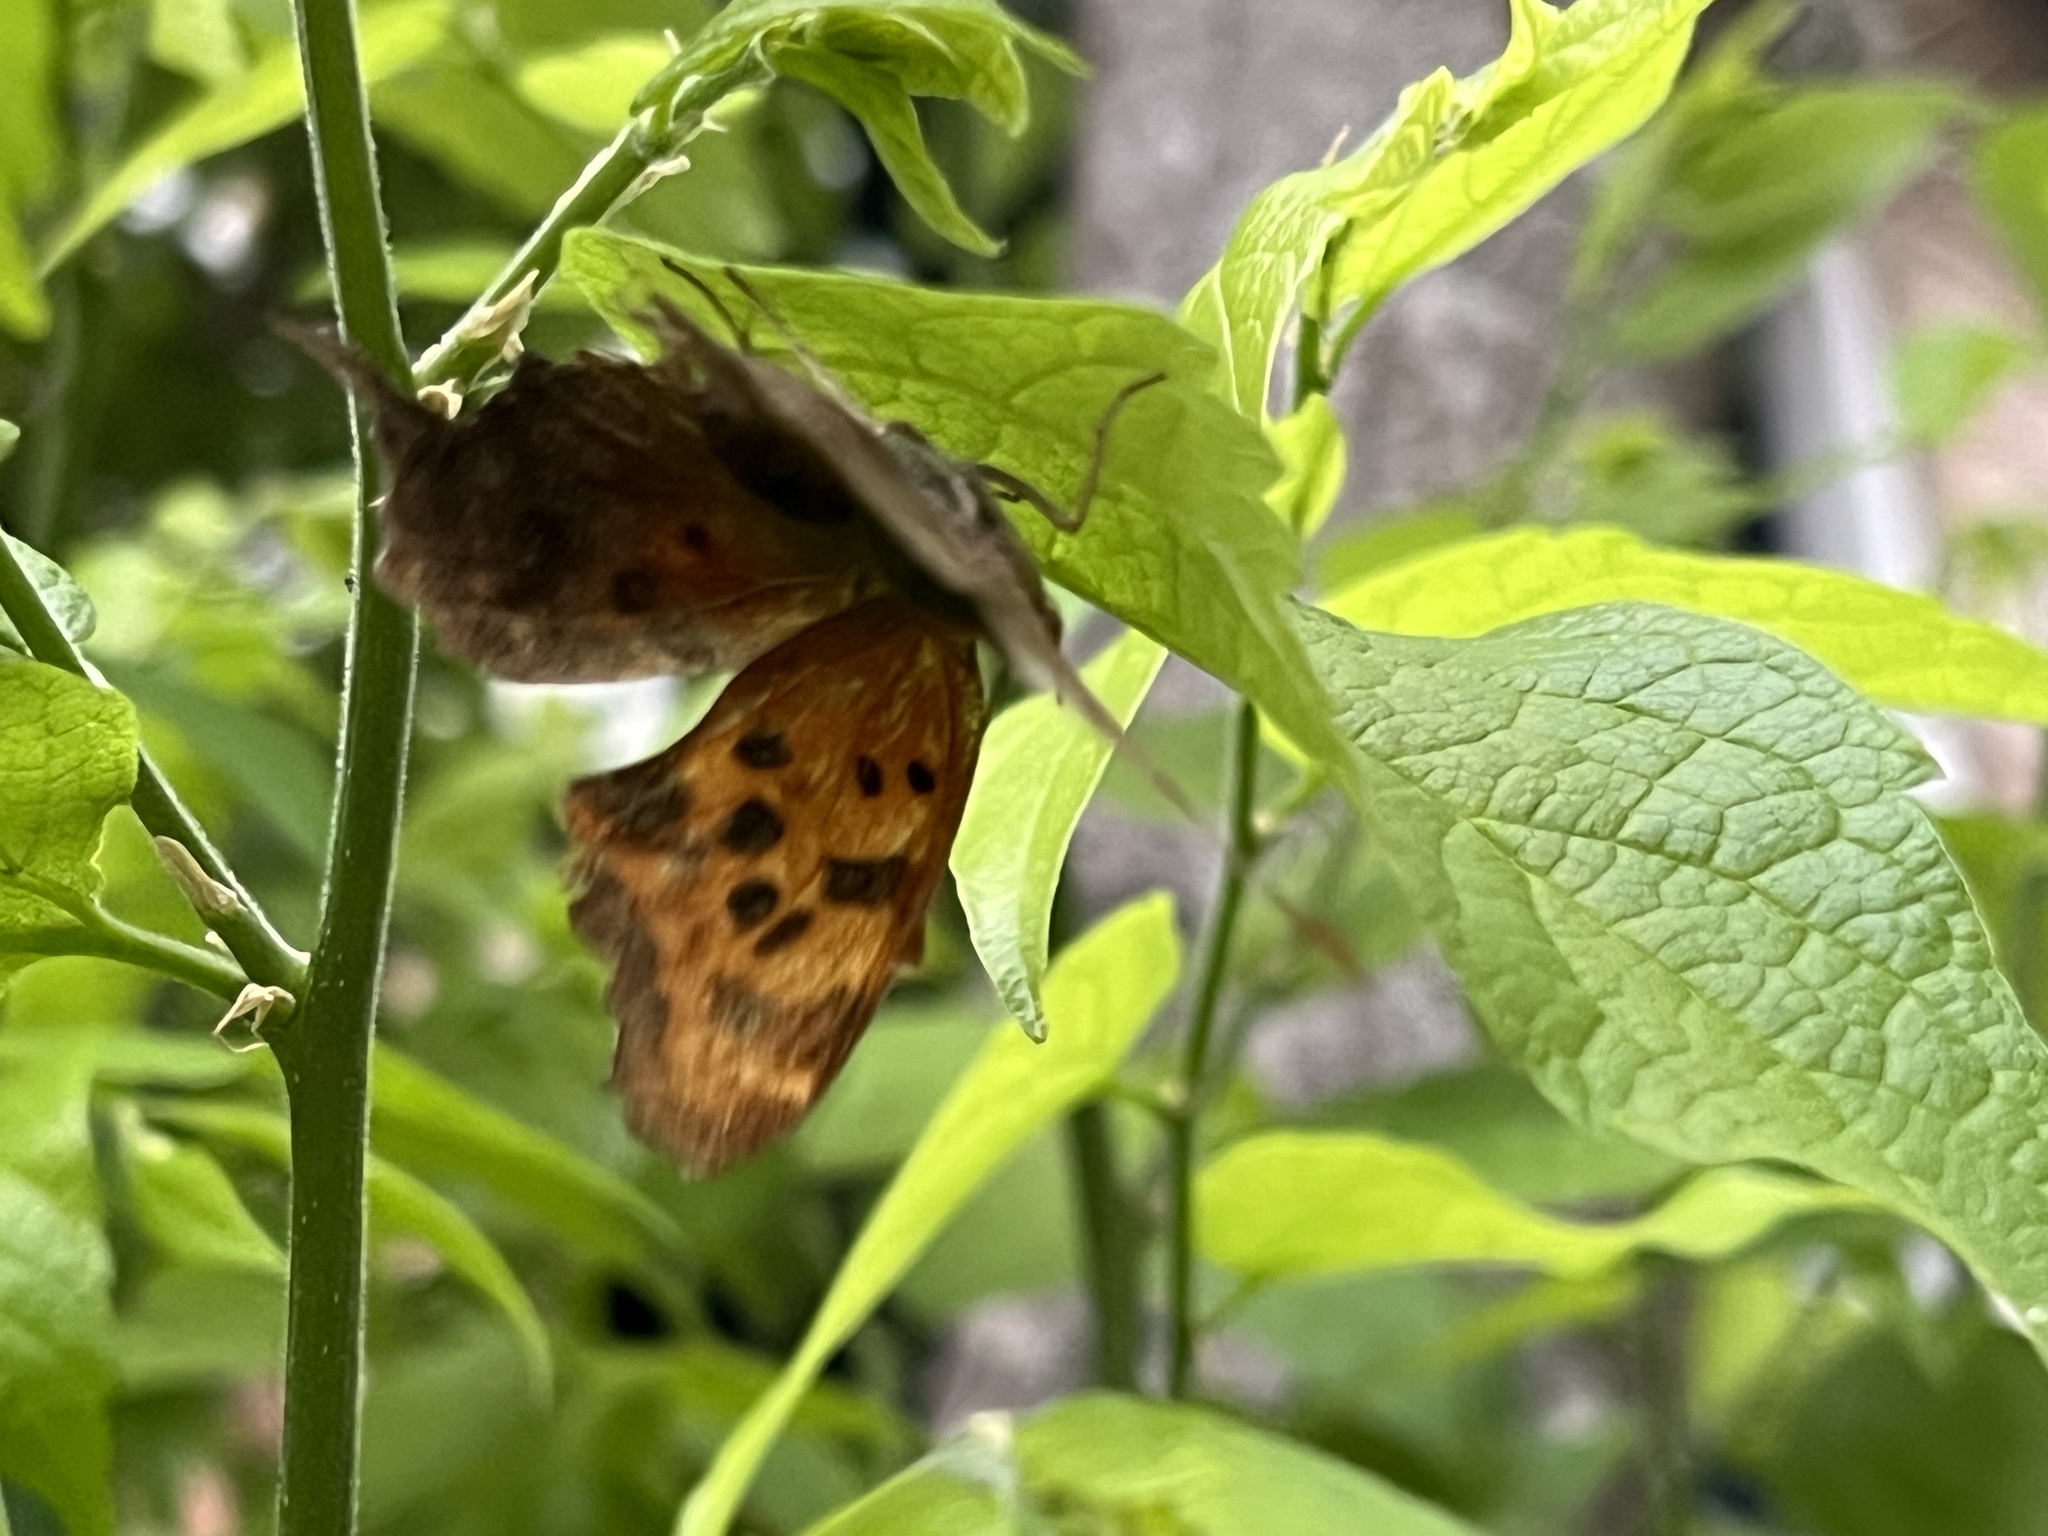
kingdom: Animalia
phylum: Arthropoda
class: Insecta
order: Lepidoptera
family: Nymphalidae
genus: Polygonia
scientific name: Polygonia interrogationis
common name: Question mark
